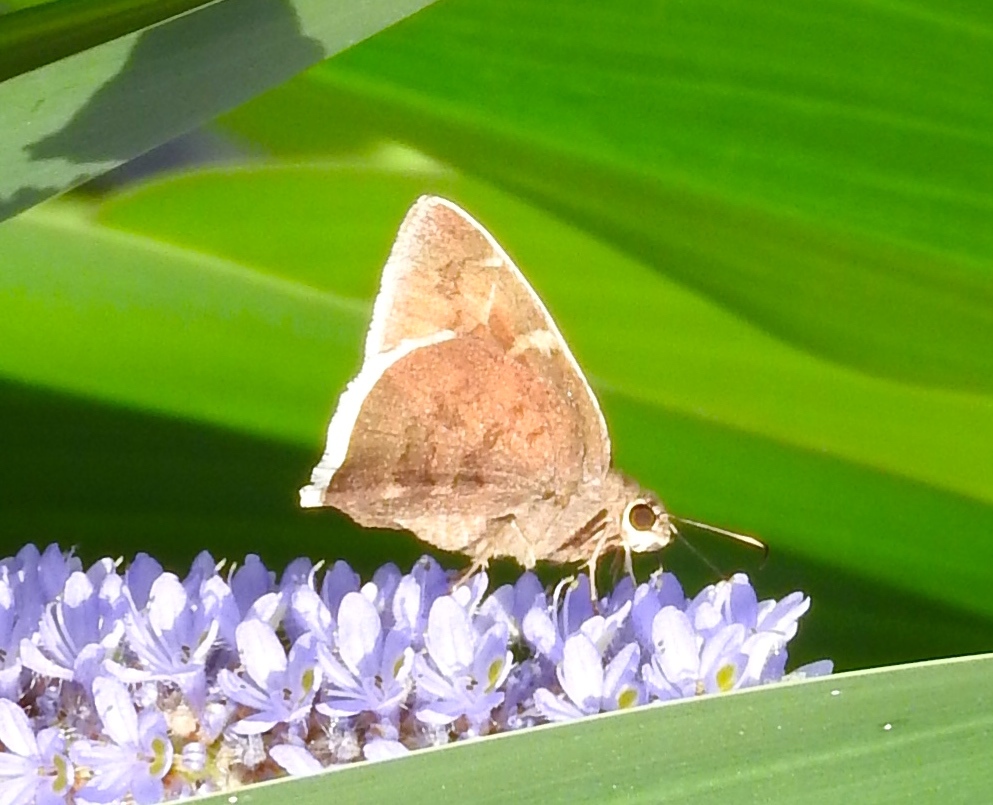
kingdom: Animalia
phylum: Arthropoda
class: Insecta
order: Lepidoptera
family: Hesperiidae
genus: Achalarus
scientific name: Achalarus Murgaria albociliatus
